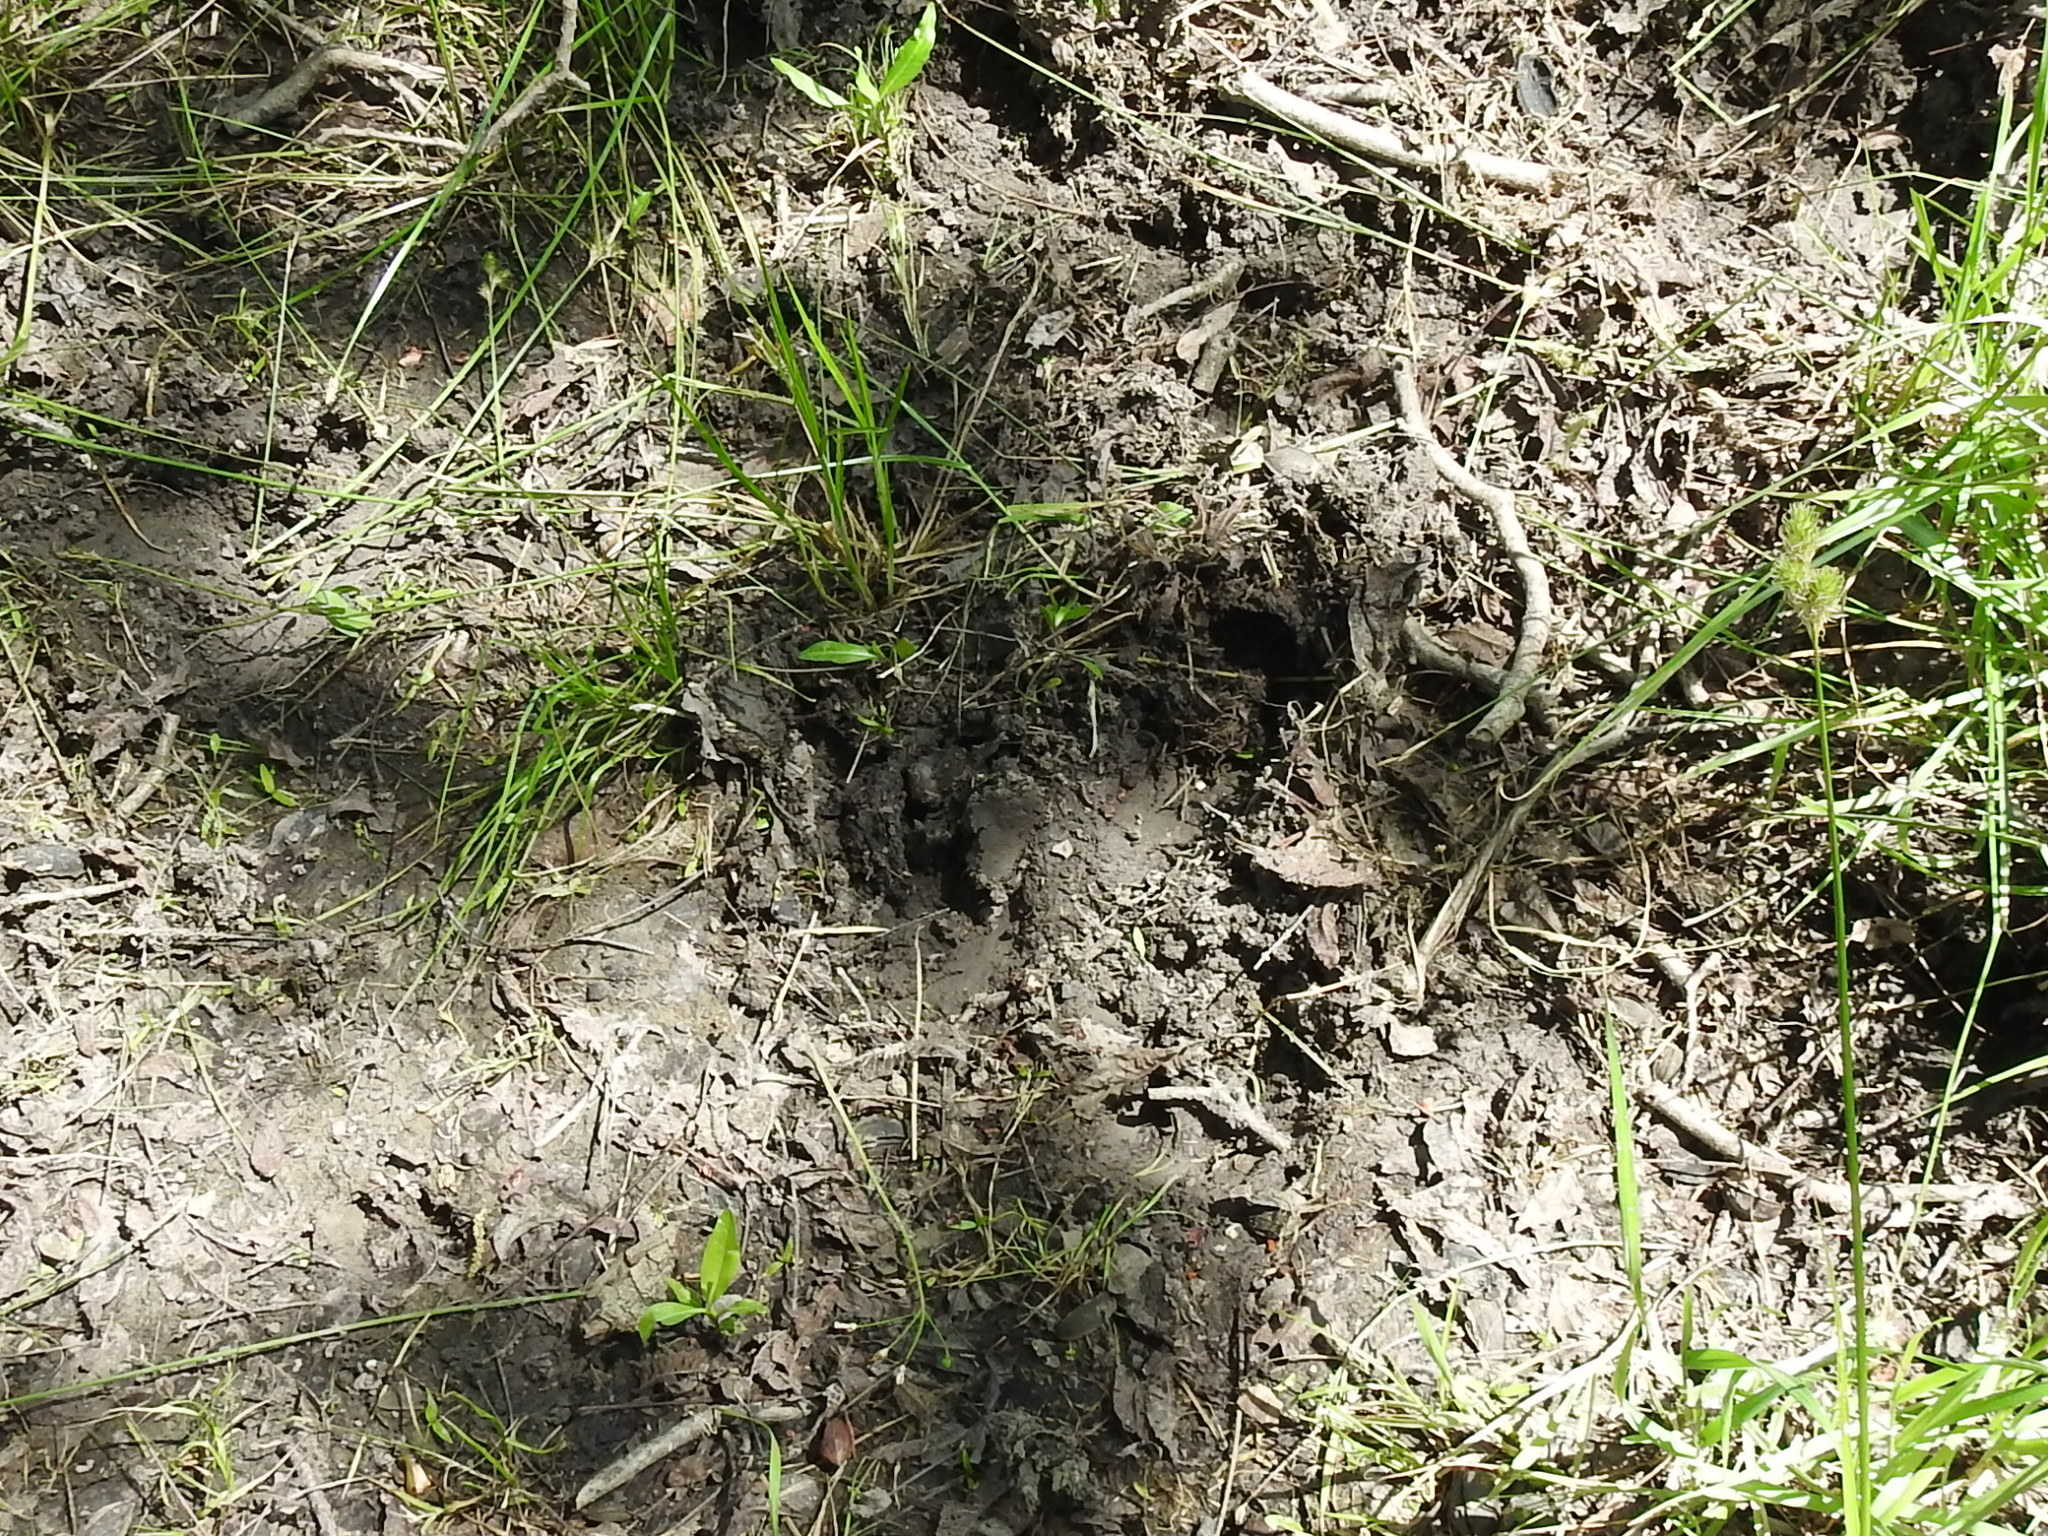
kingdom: Animalia
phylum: Chordata
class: Mammalia
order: Artiodactyla
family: Suidae
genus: Sus
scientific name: Sus scrofa
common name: Wild boar
